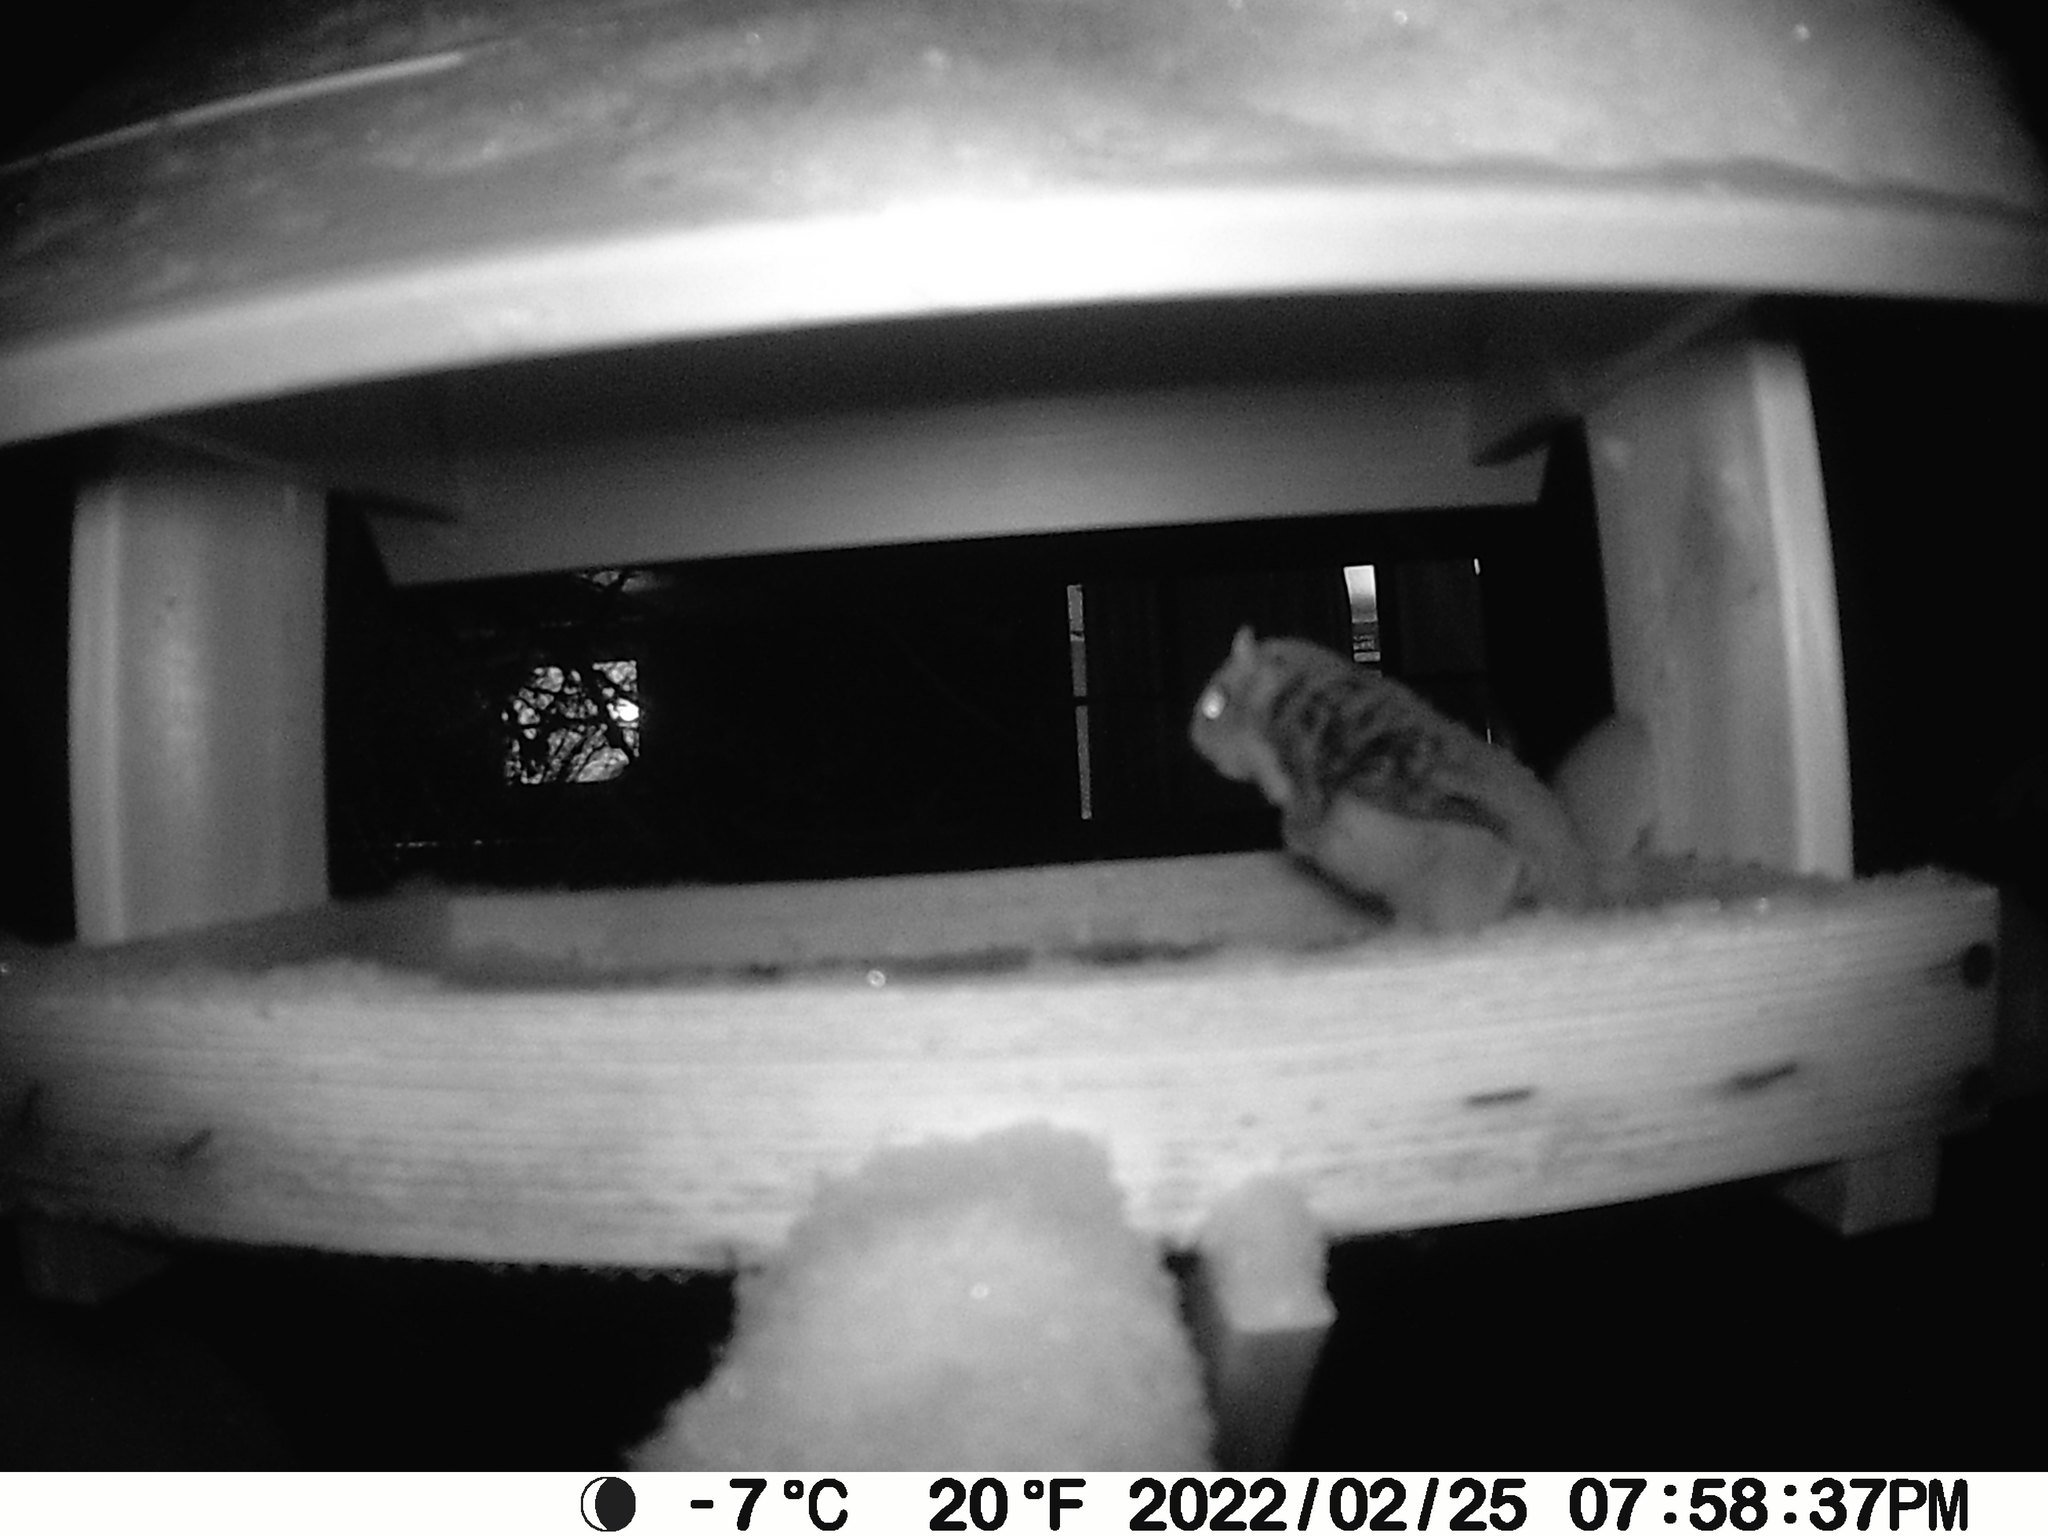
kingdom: Animalia
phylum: Chordata
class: Mammalia
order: Rodentia
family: Sciuridae
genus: Glaucomys
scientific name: Glaucomys sabrinus
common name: Northern flying squirrel
